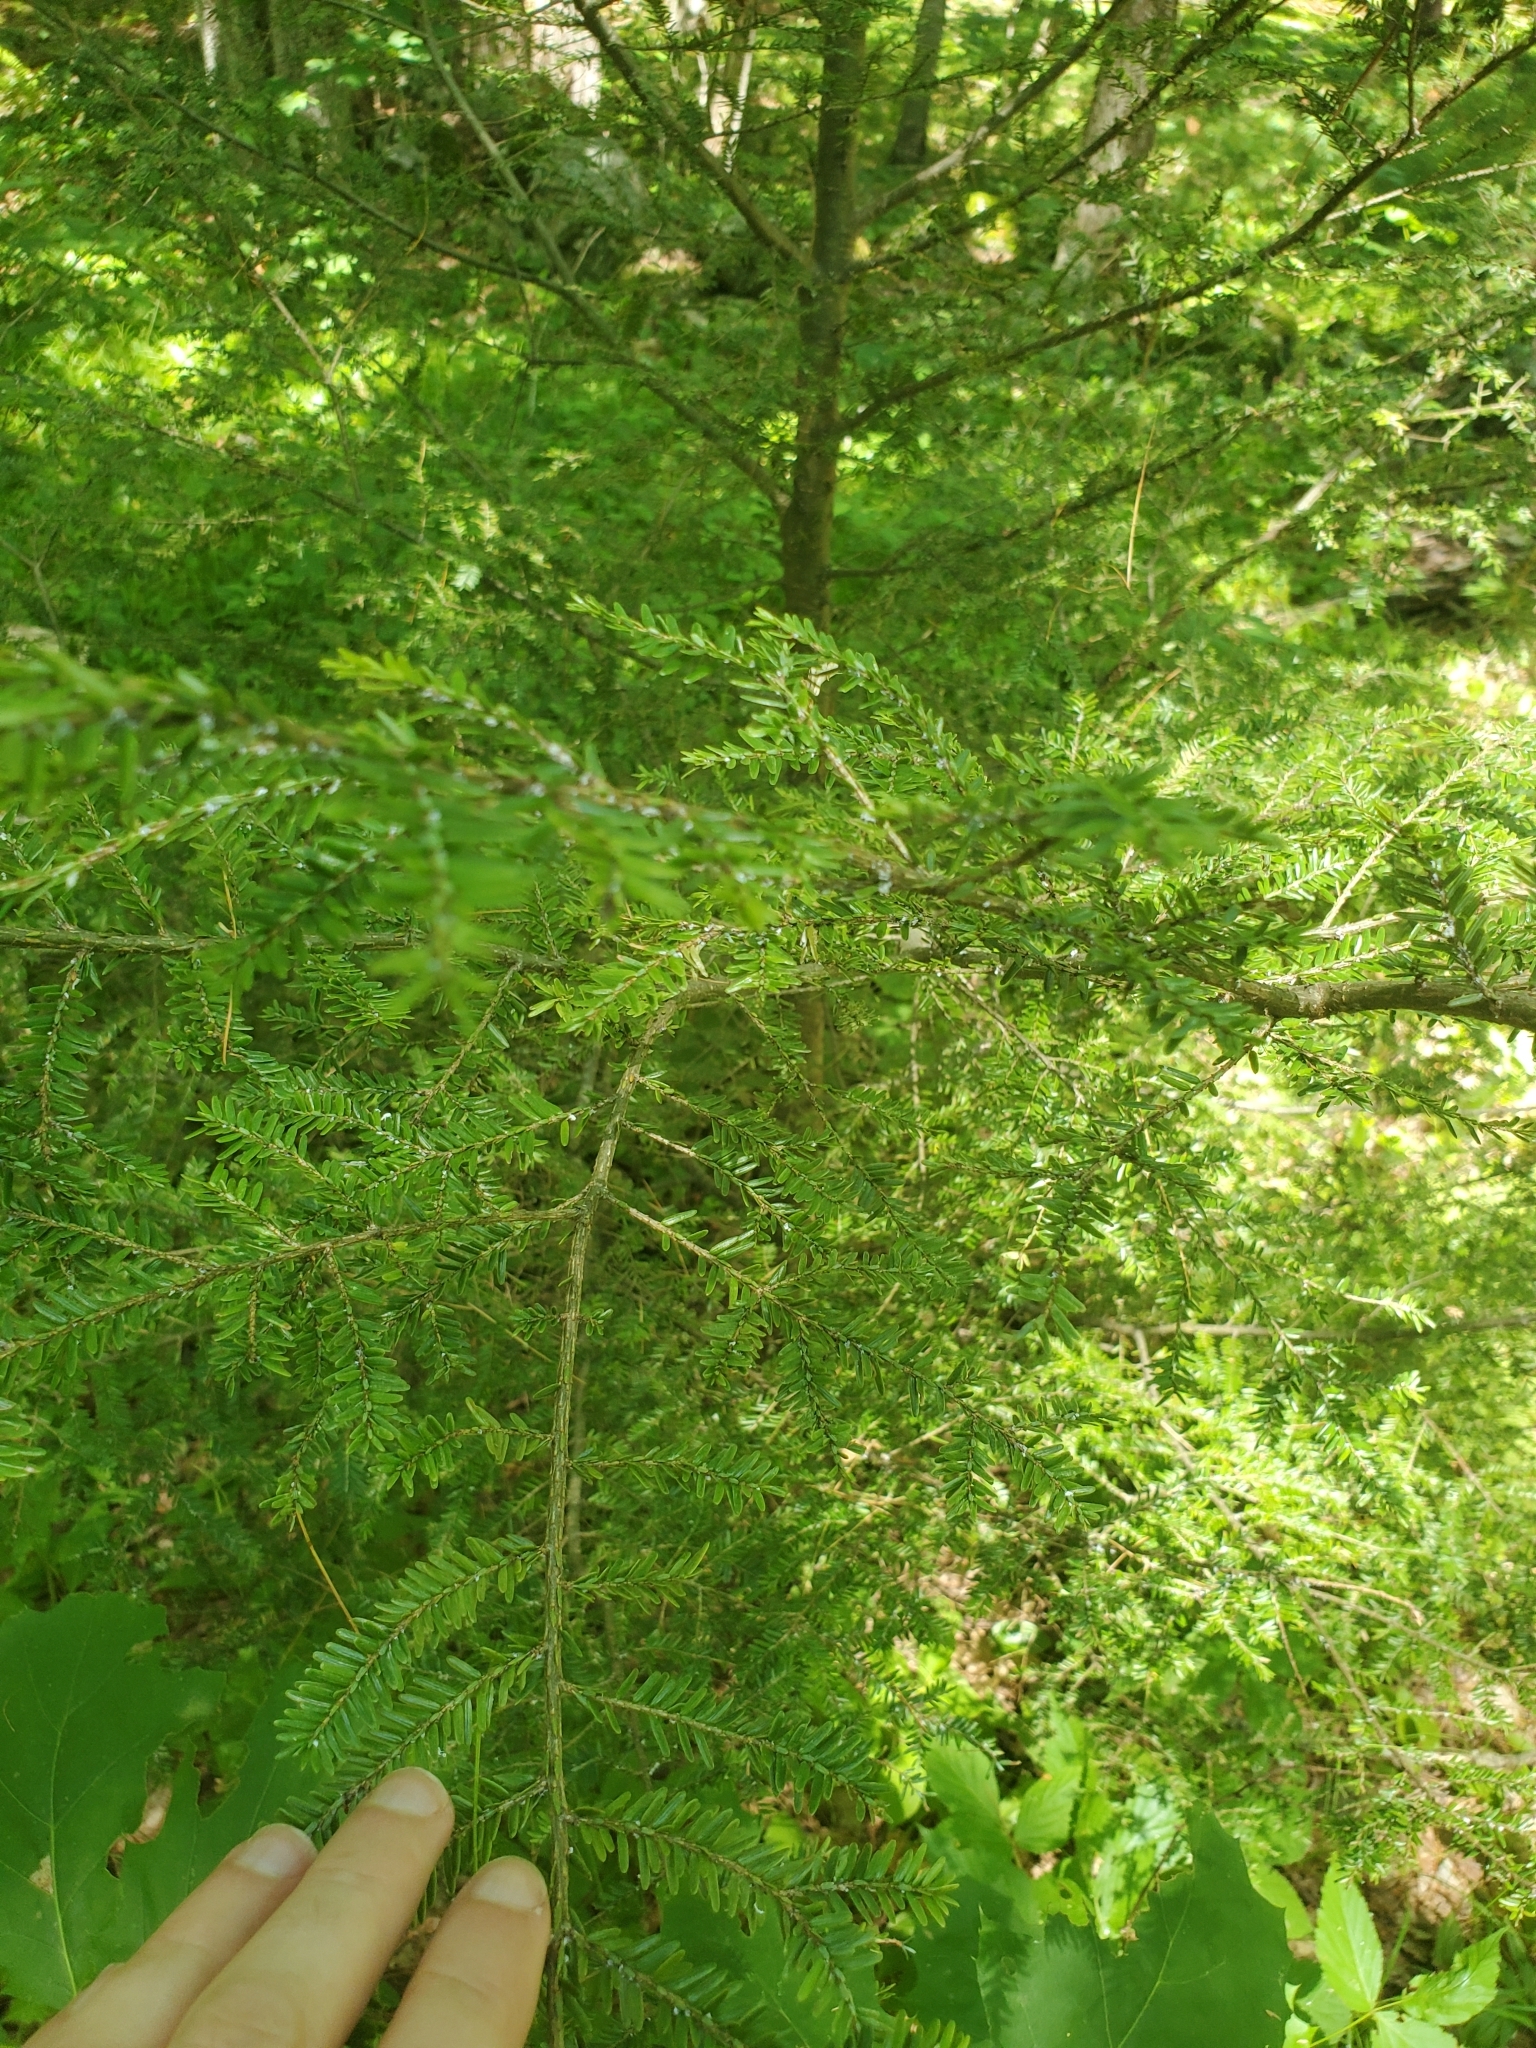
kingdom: Plantae
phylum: Tracheophyta
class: Pinopsida
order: Pinales
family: Pinaceae
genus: Tsuga
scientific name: Tsuga canadensis
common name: Eastern hemlock
